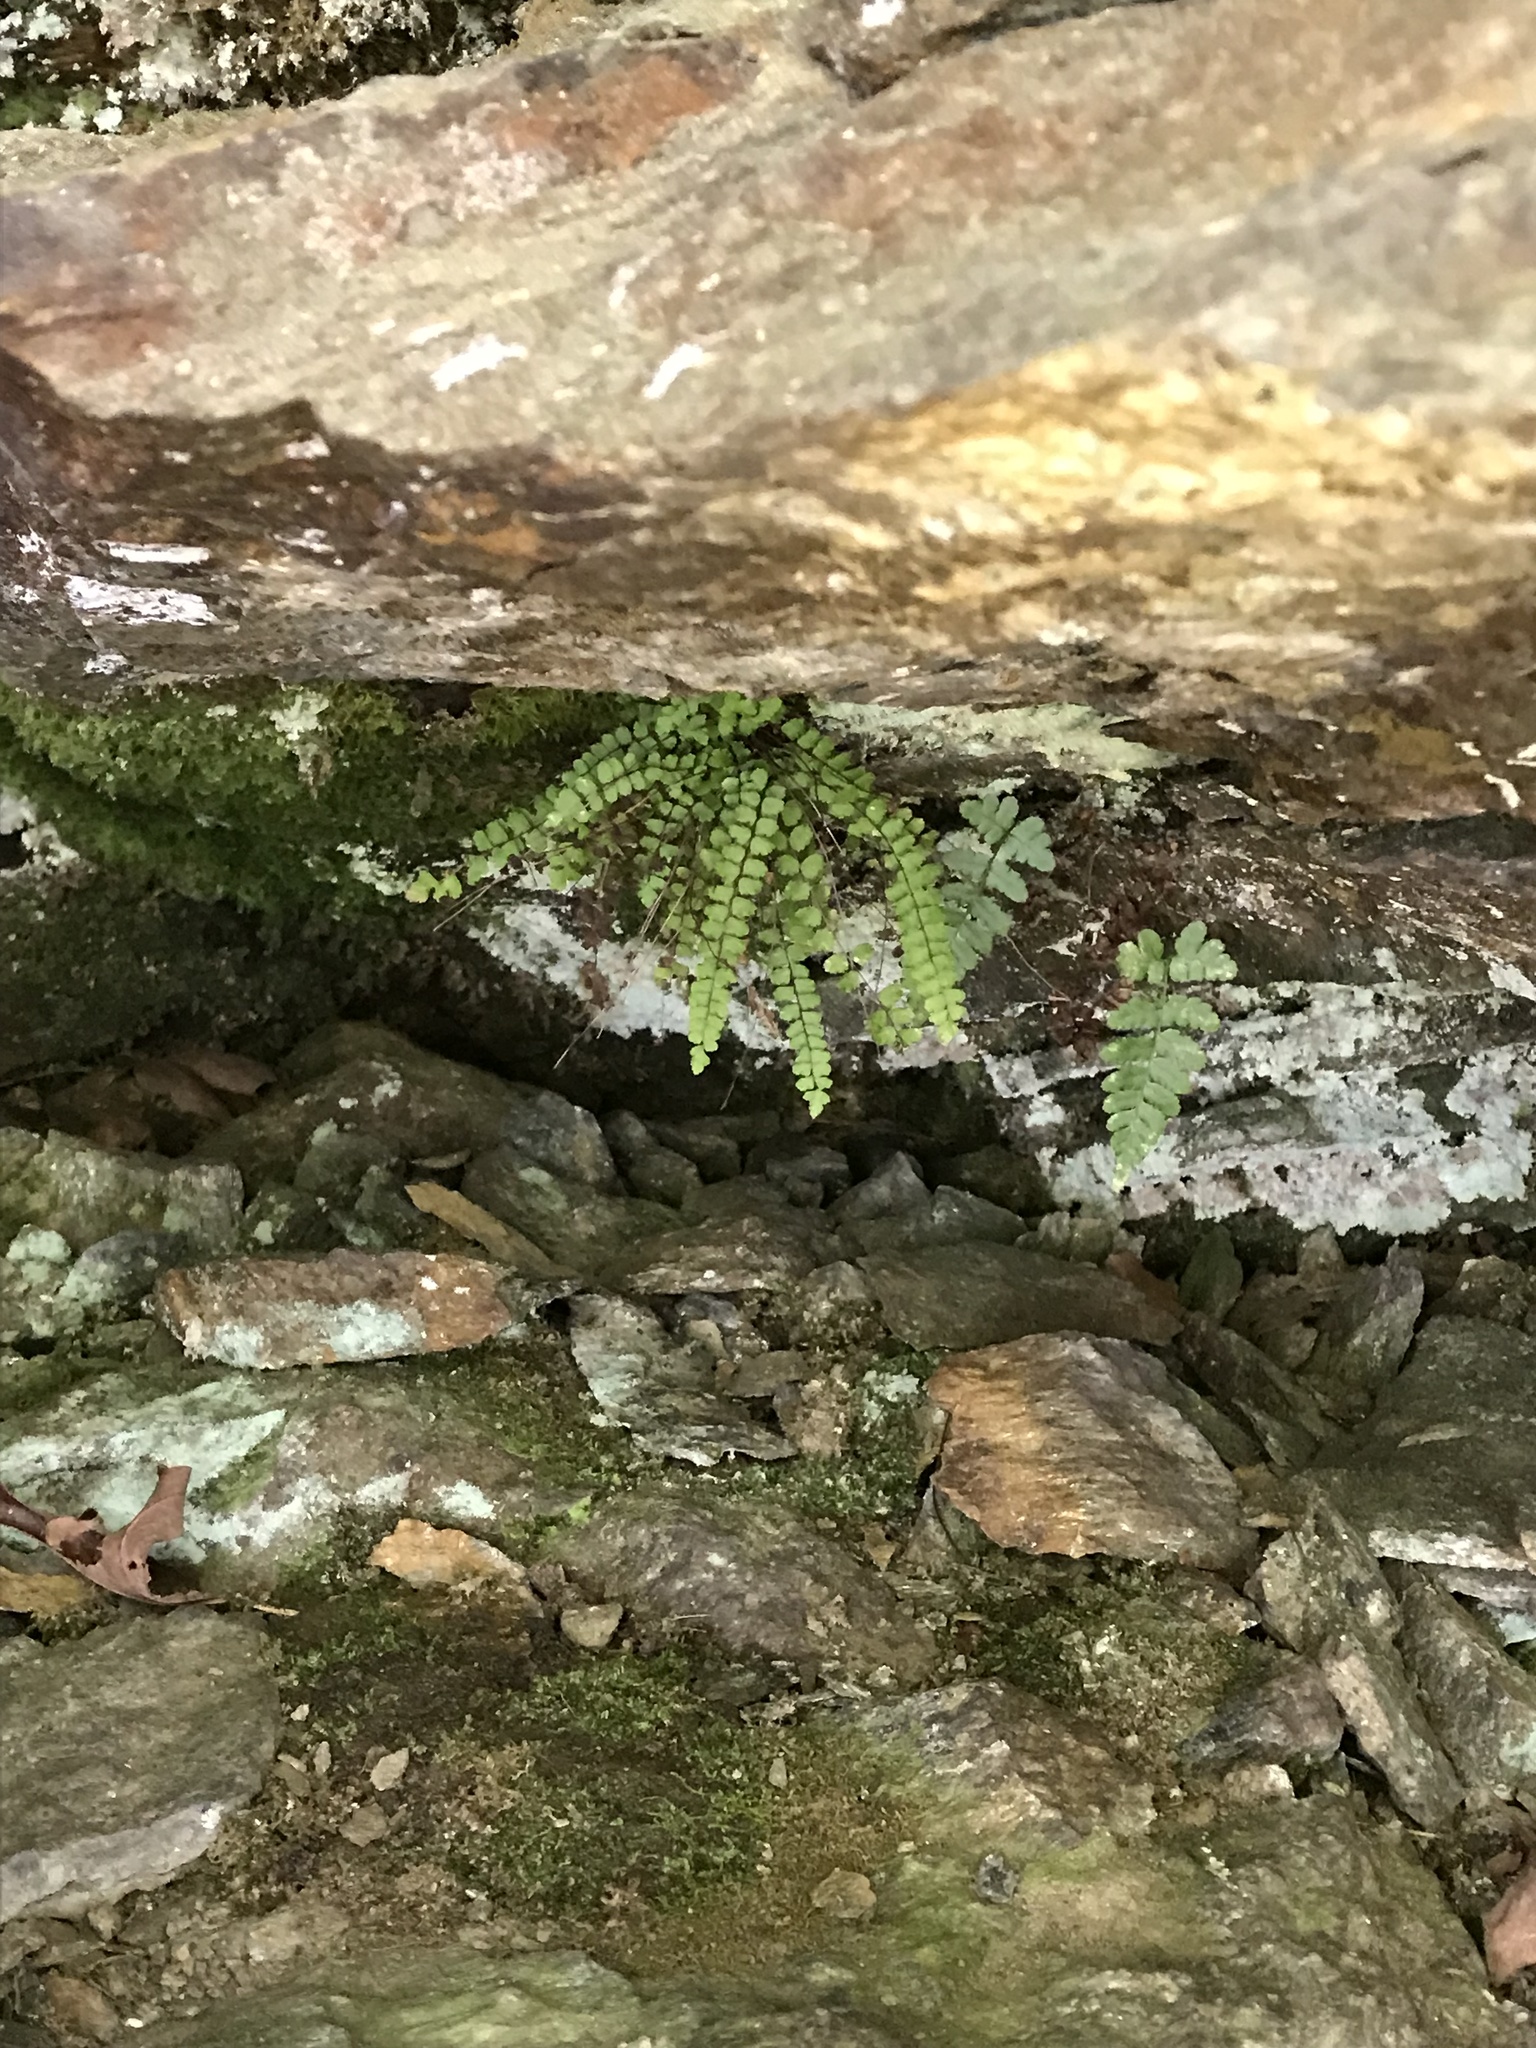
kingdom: Plantae
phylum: Tracheophyta
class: Polypodiopsida
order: Polypodiales
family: Aspleniaceae
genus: Asplenium
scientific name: Asplenium trichomanes
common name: Maidenhair spleenwort
